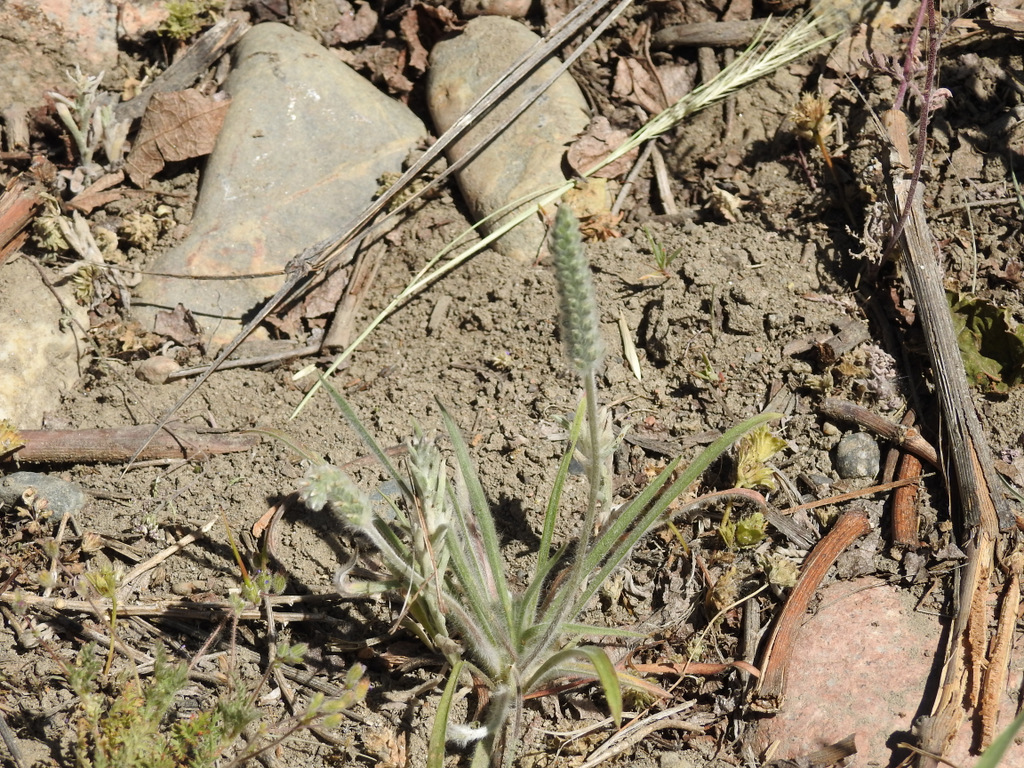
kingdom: Plantae
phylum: Tracheophyta
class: Magnoliopsida
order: Lamiales
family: Plantaginaceae
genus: Plantago
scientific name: Plantago patagonica
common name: Patagonia indian-wheat
